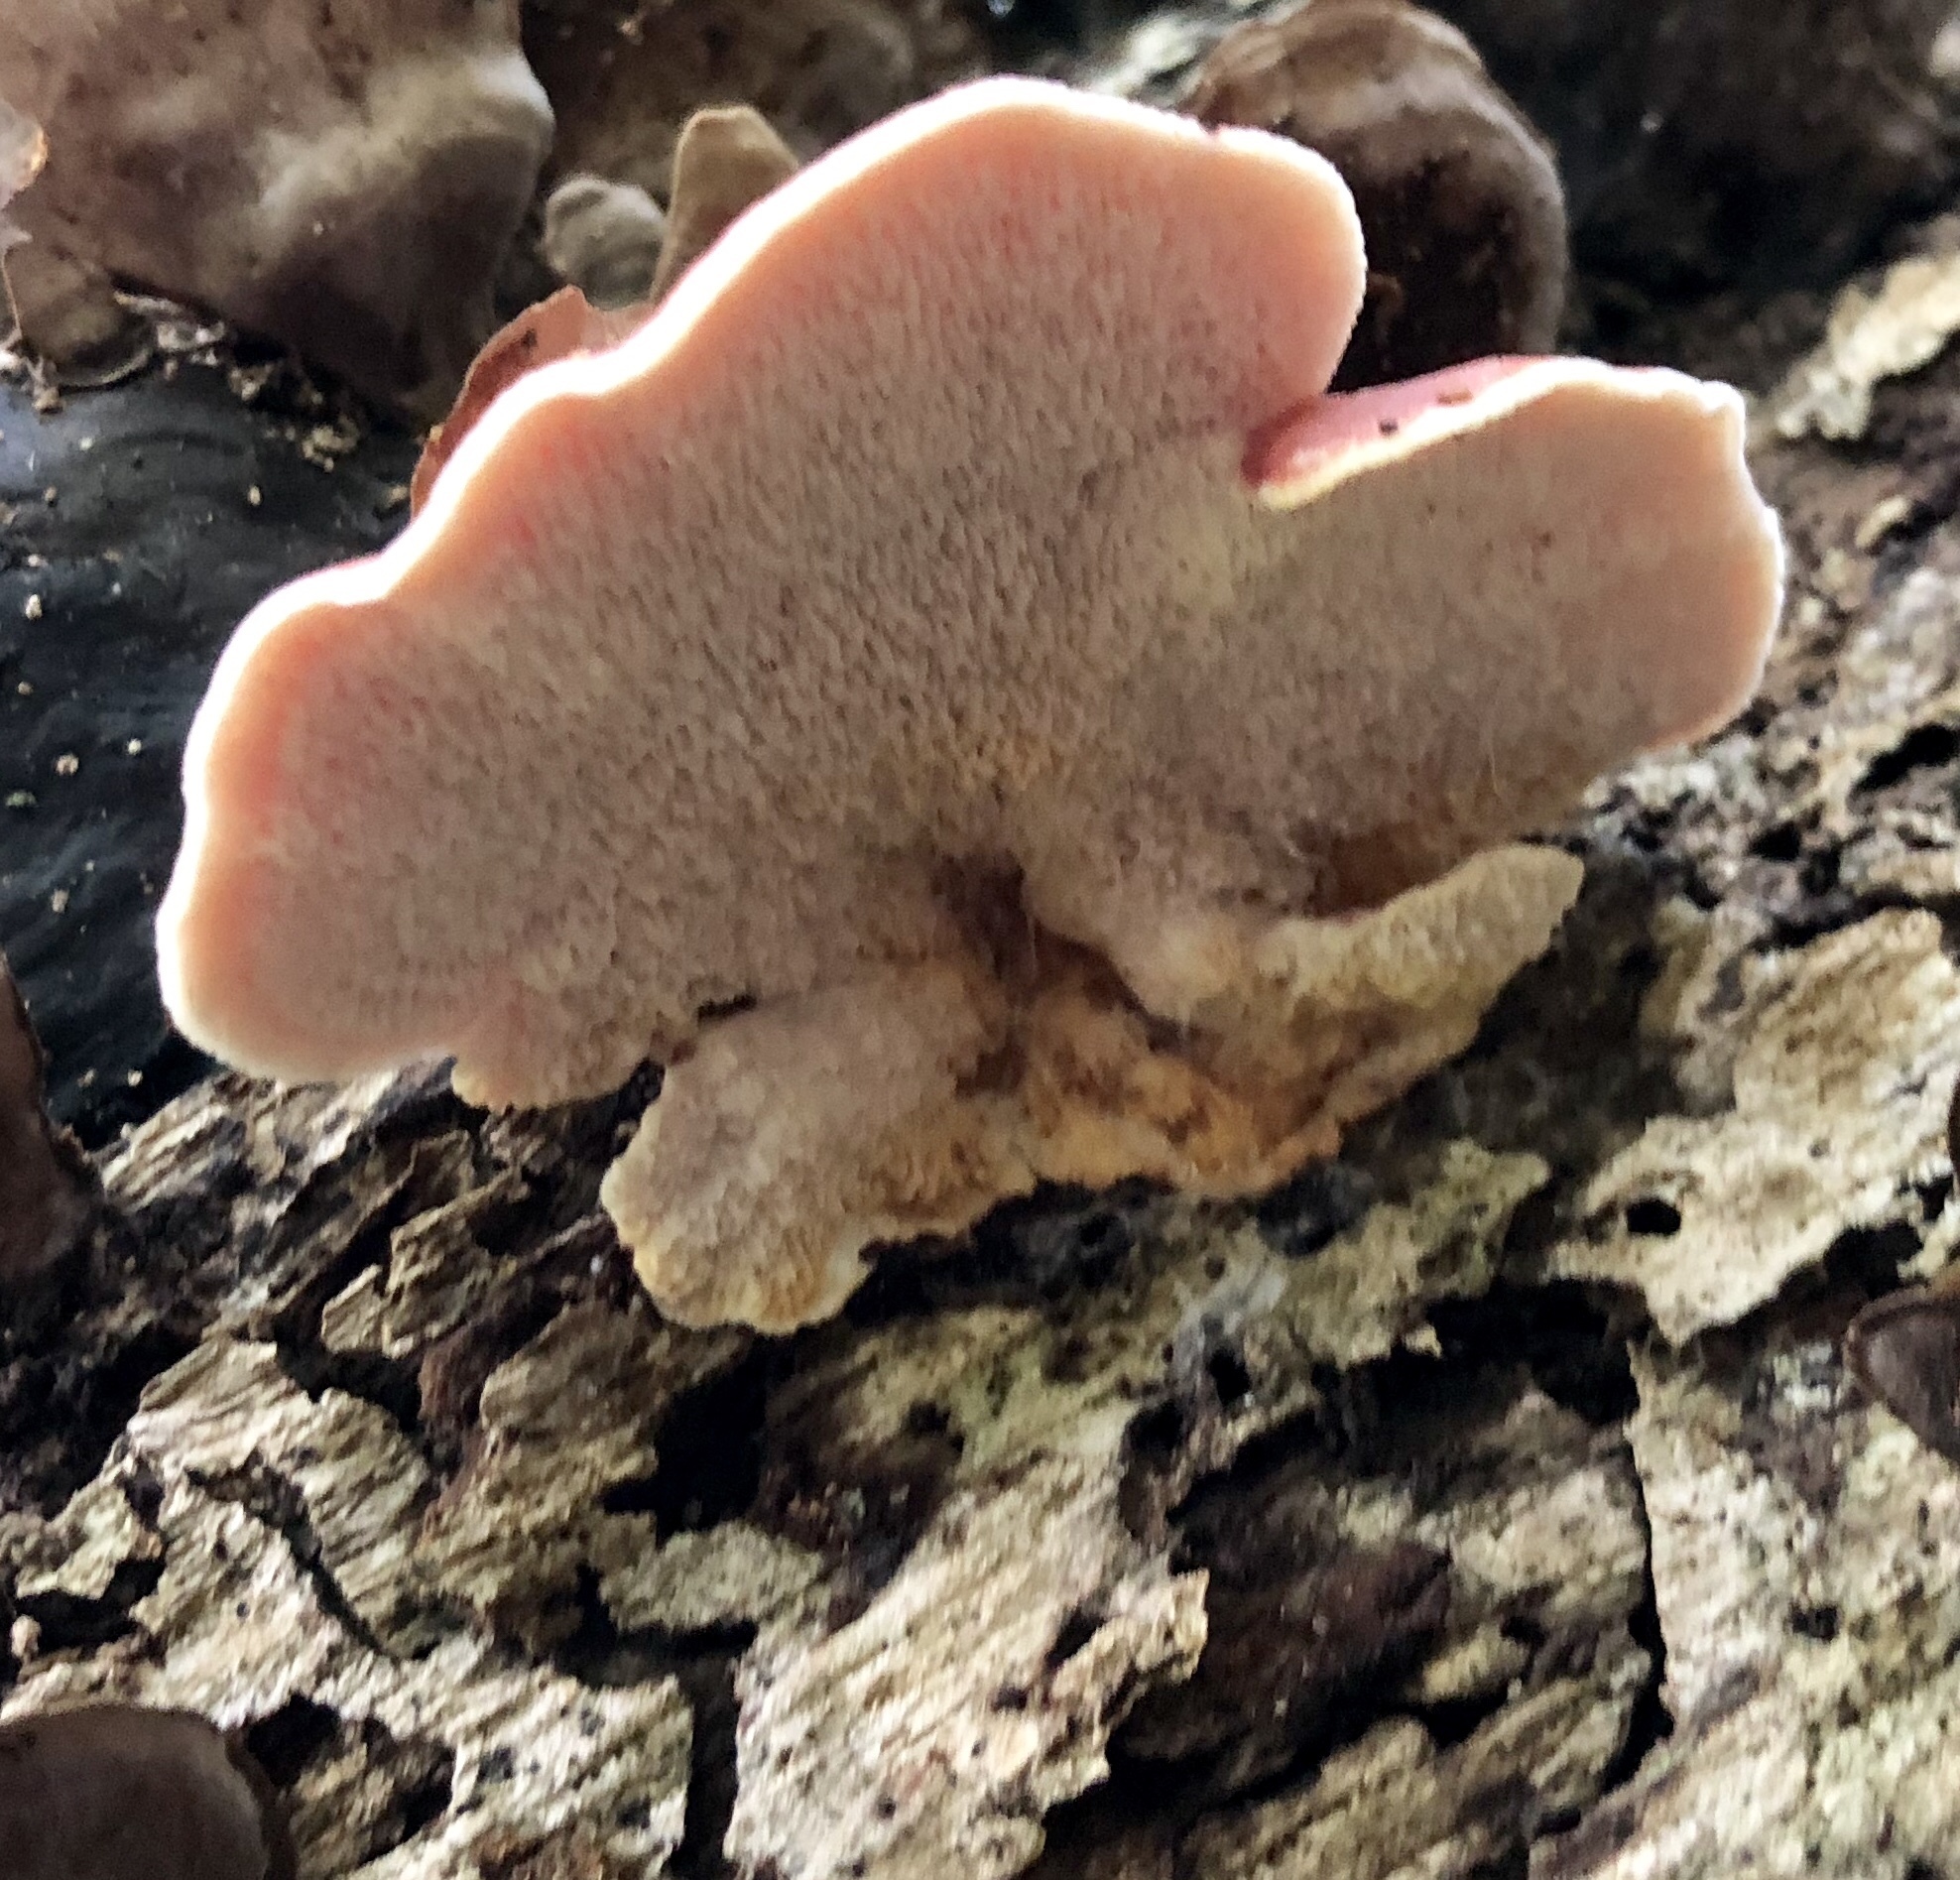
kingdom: Fungi
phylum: Basidiomycota
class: Agaricomycetes
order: Polyporales
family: Irpicaceae
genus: Byssomerulius
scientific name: Byssomerulius incarnatus
